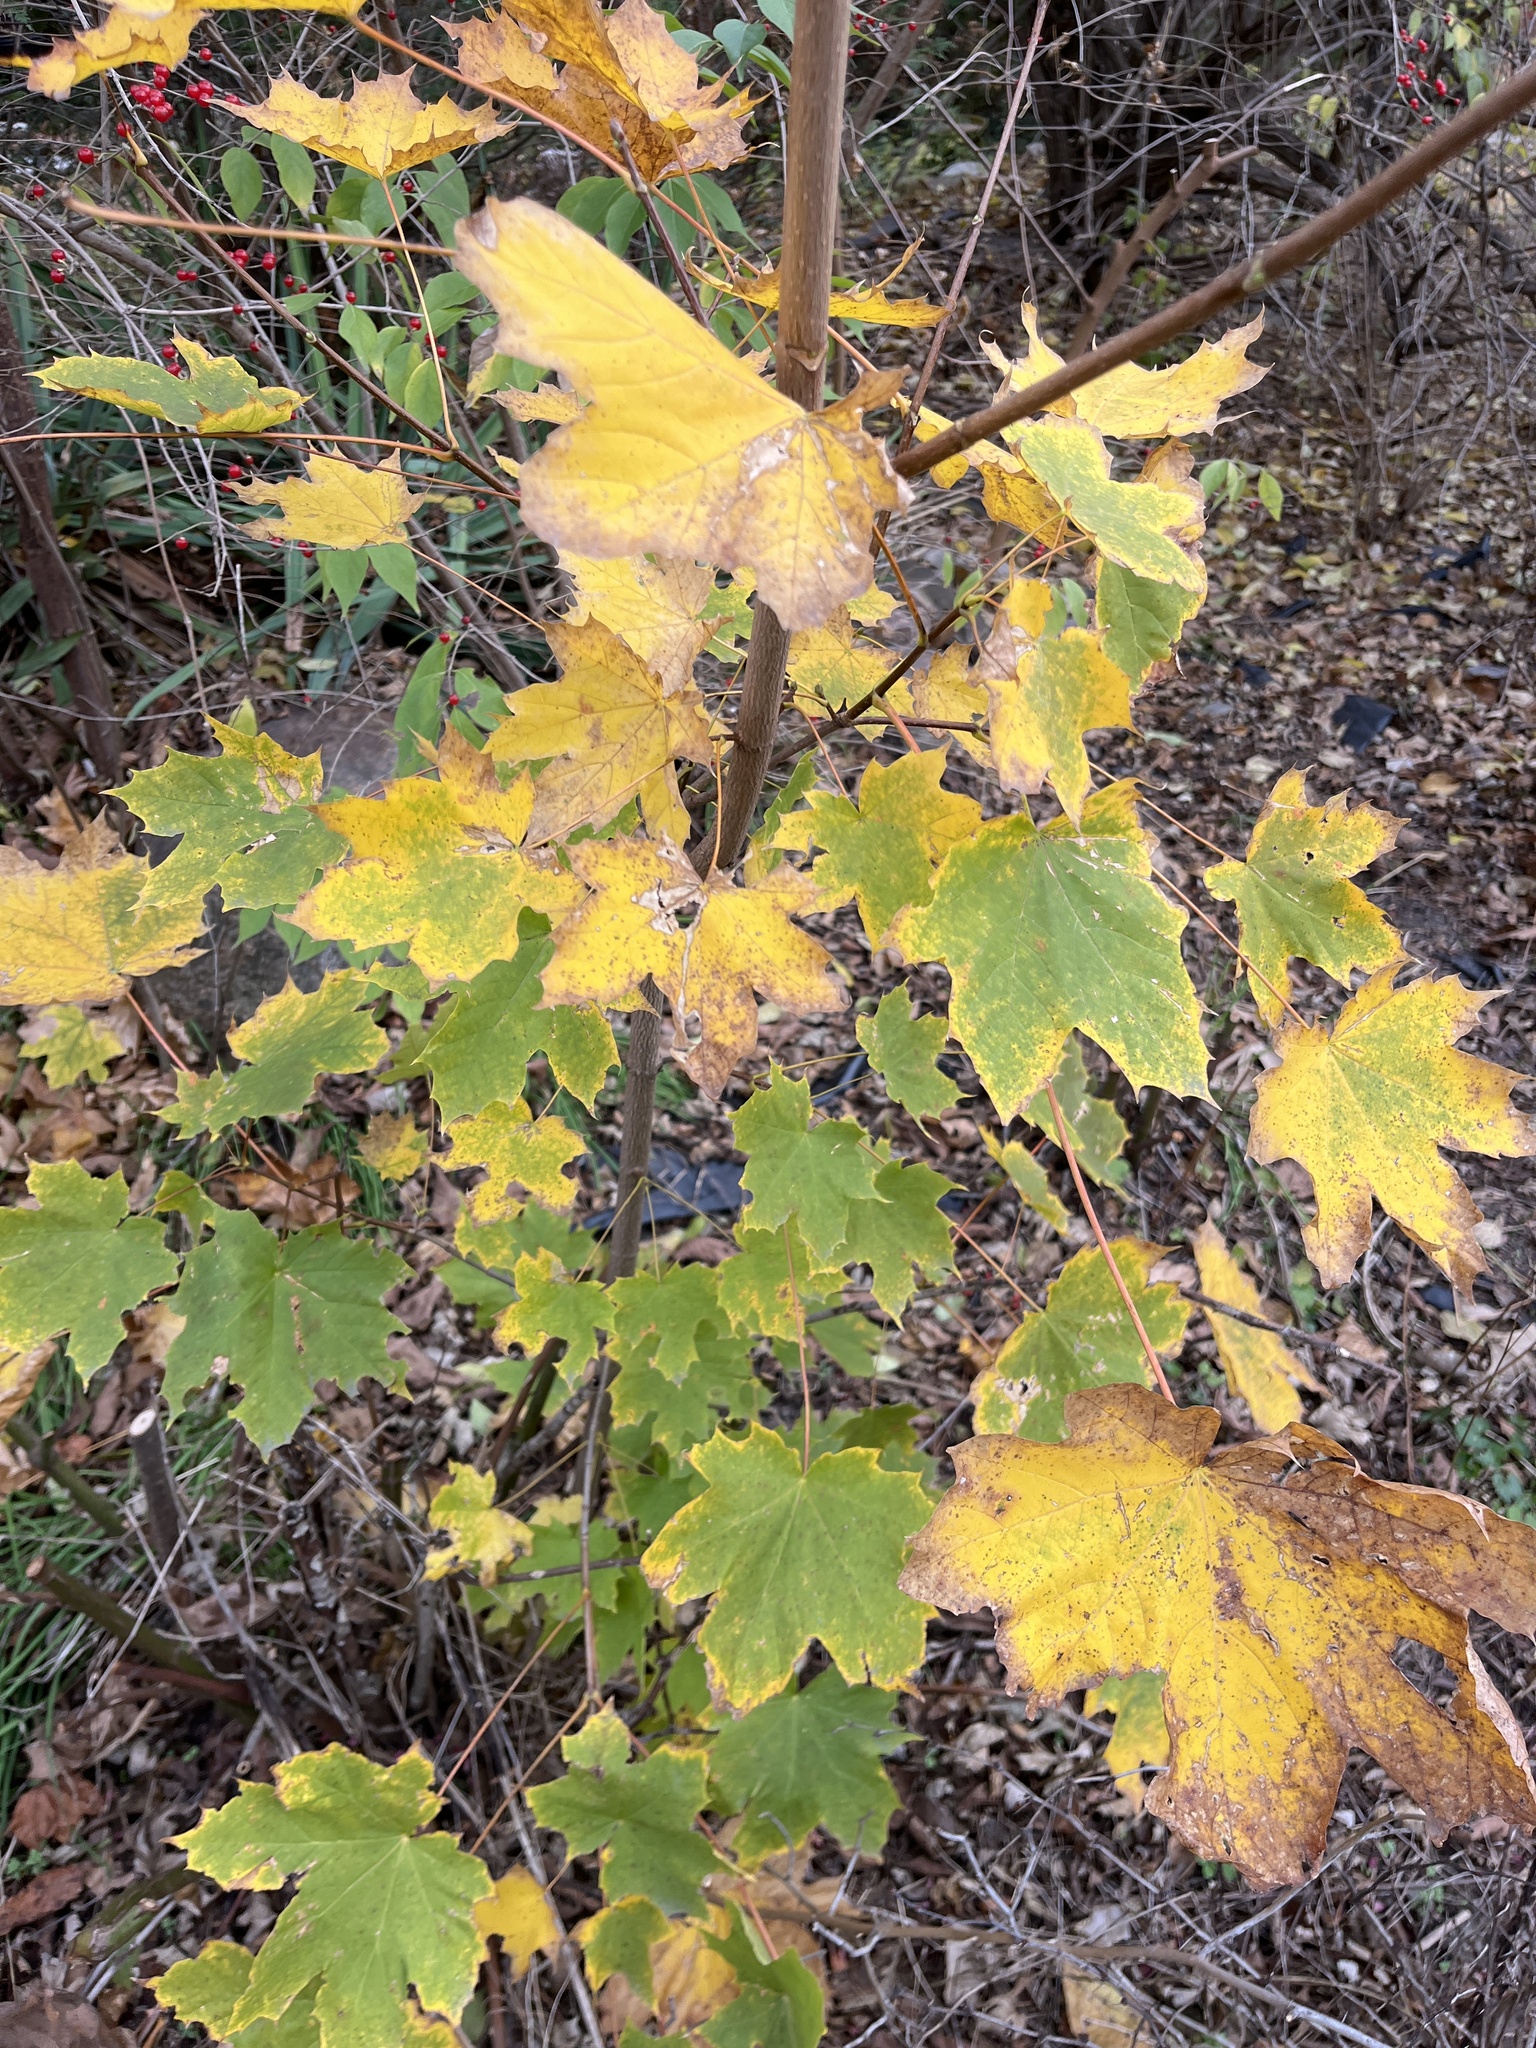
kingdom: Plantae
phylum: Tracheophyta
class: Magnoliopsida
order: Sapindales
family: Sapindaceae
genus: Acer
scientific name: Acer platanoides
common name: Norway maple
